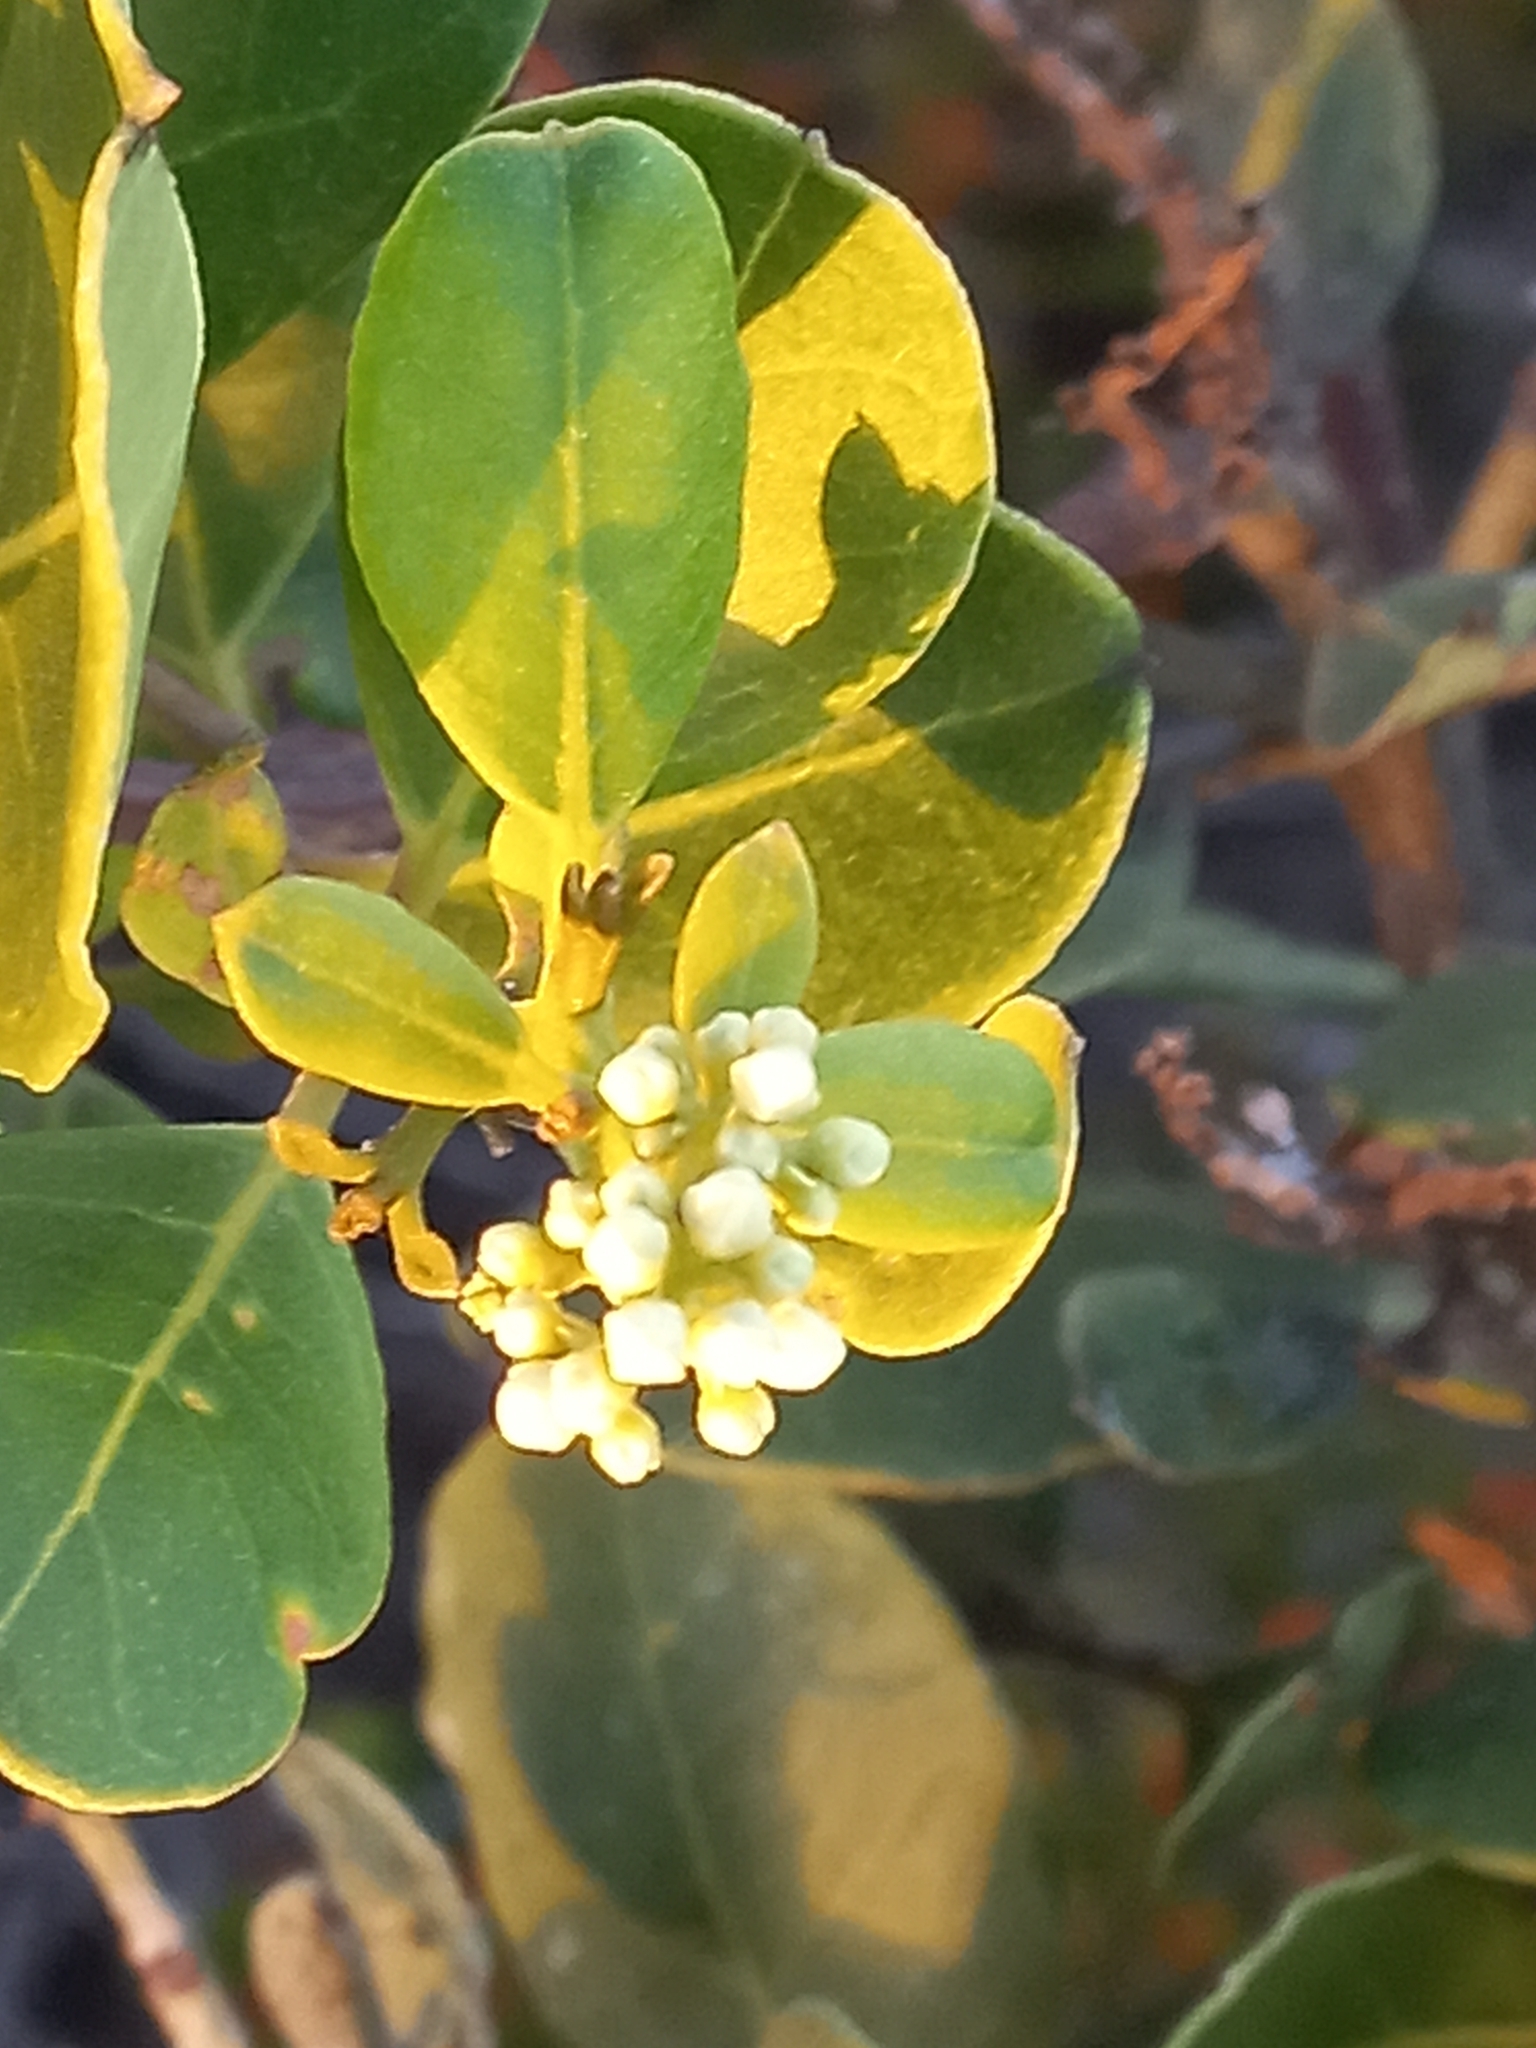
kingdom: Plantae
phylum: Tracheophyta
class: Magnoliopsida
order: Lamiales
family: Oleaceae
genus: Olea
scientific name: Olea capensis
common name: Black ironwood
